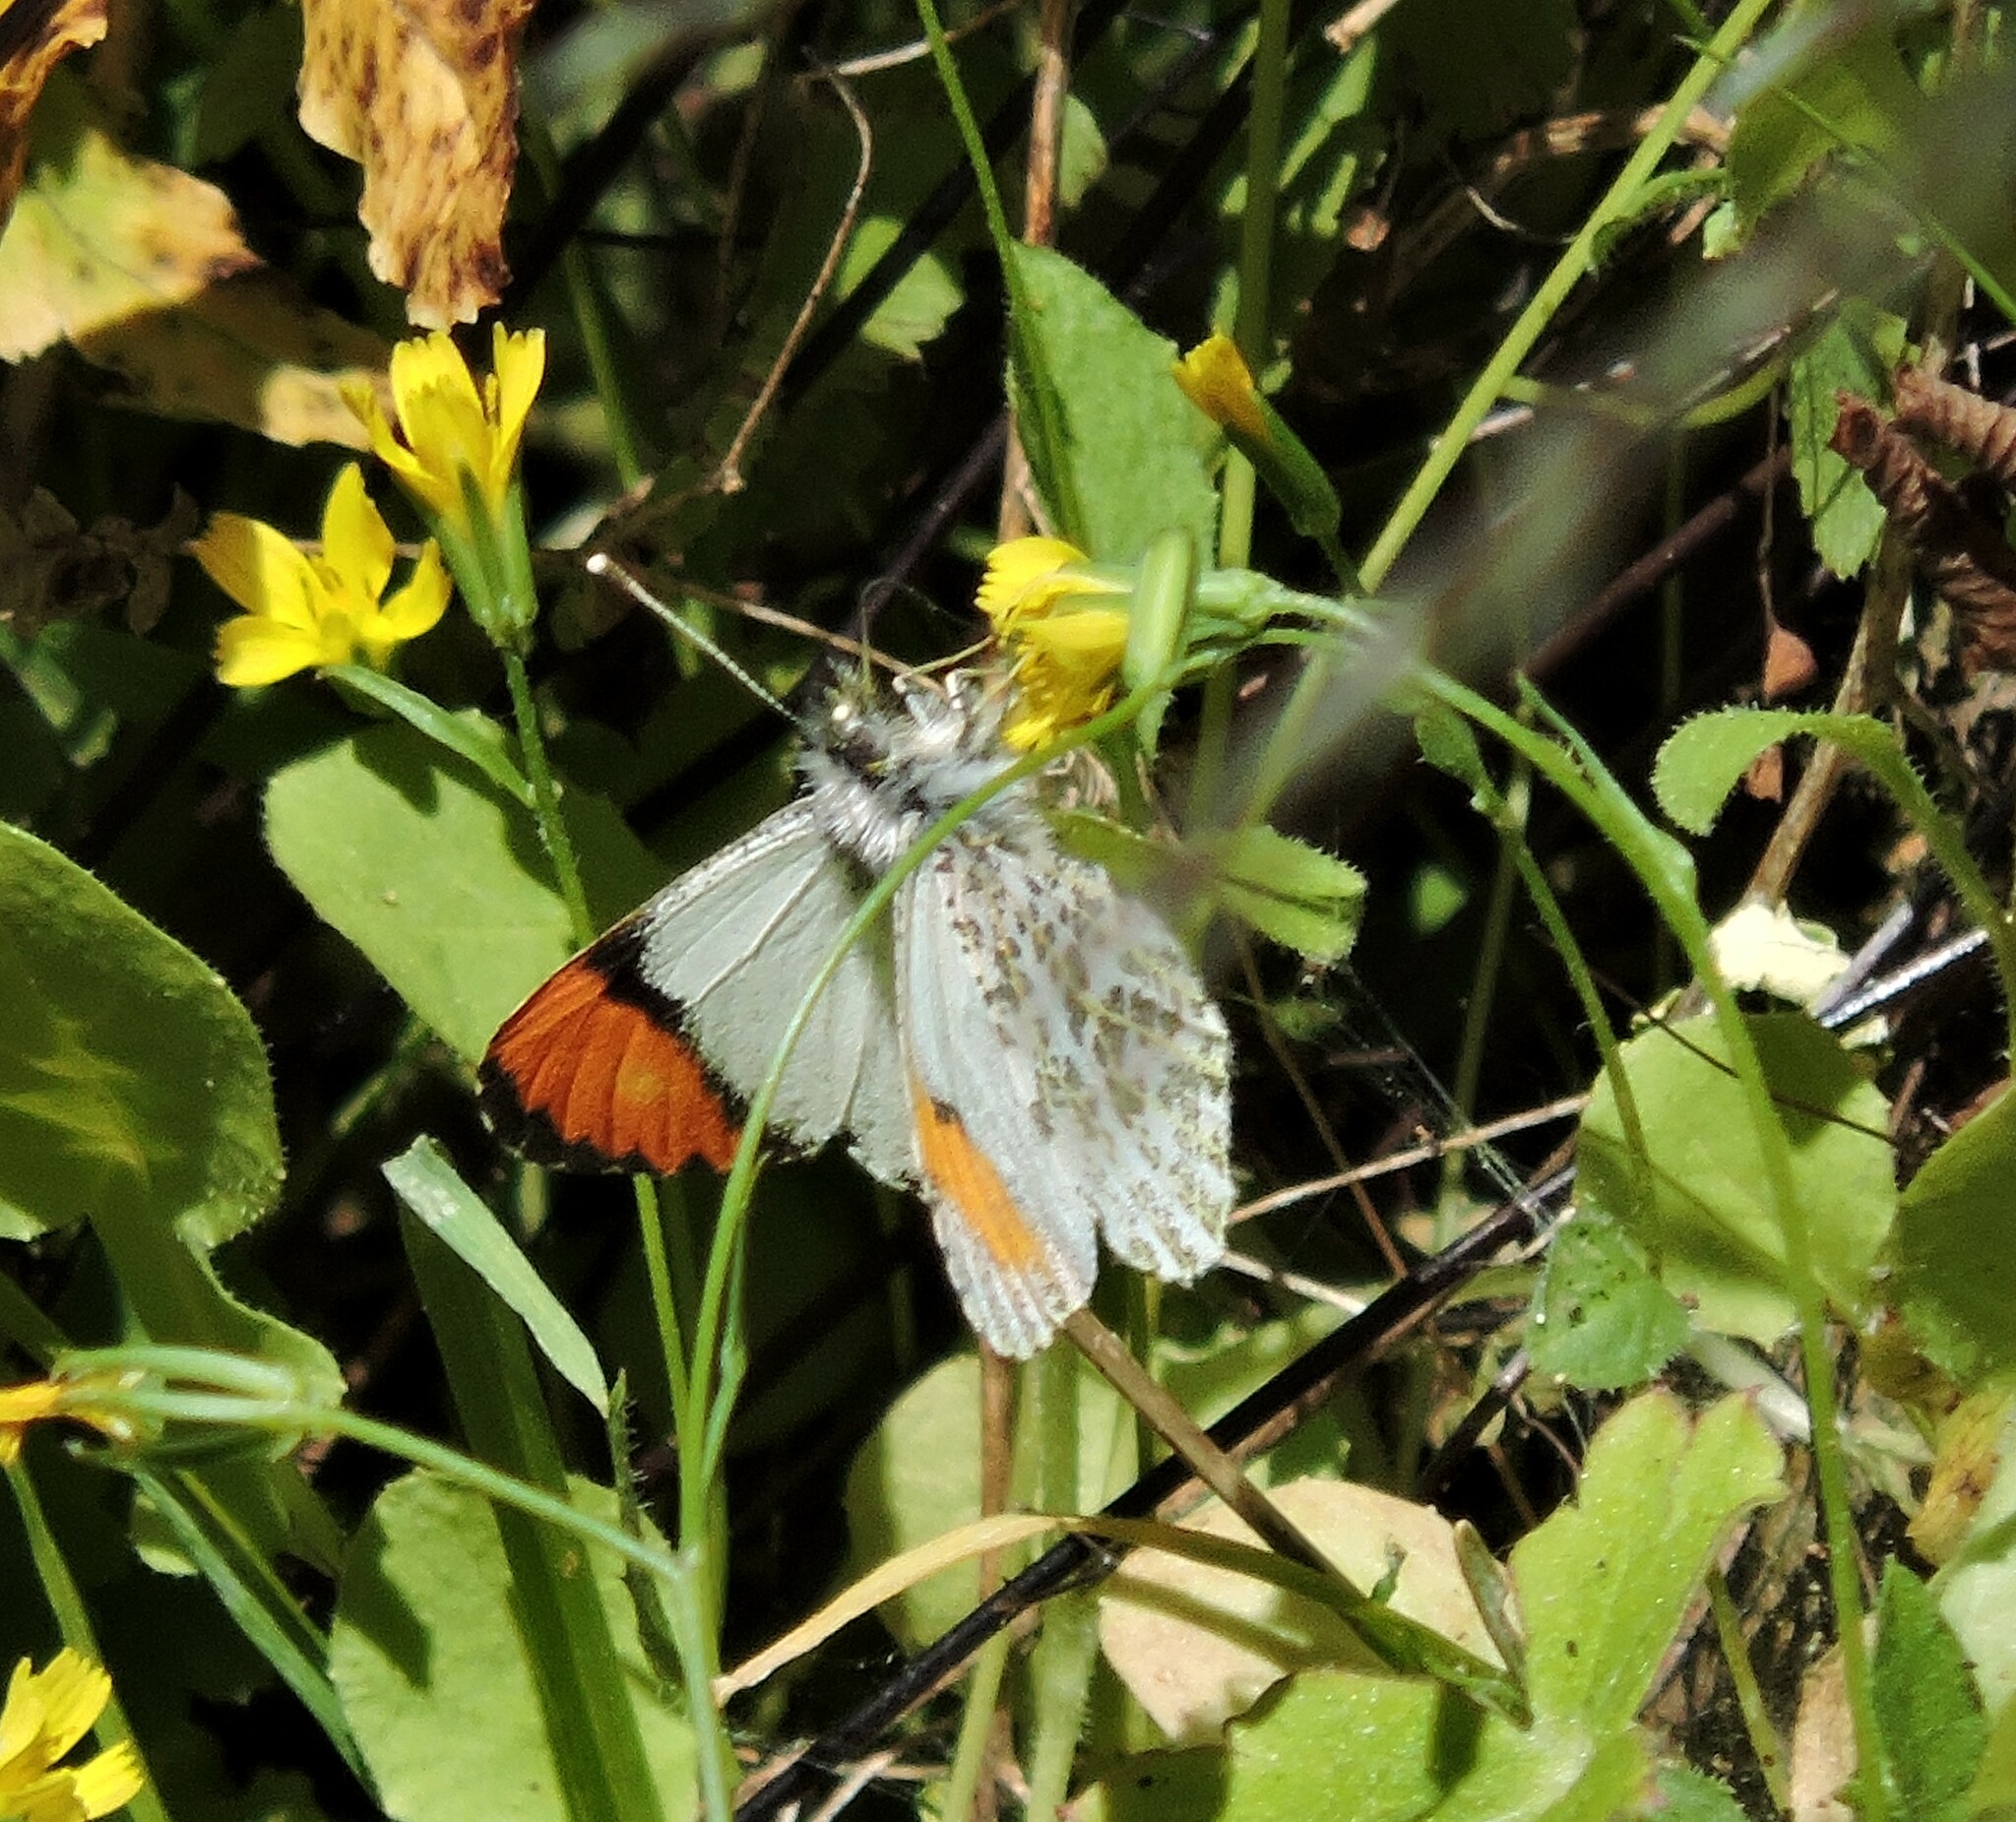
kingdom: Animalia
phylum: Arthropoda
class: Insecta
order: Lepidoptera
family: Pieridae
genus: Anthocharis
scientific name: Anthocharis sara
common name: Sara's orangetip
